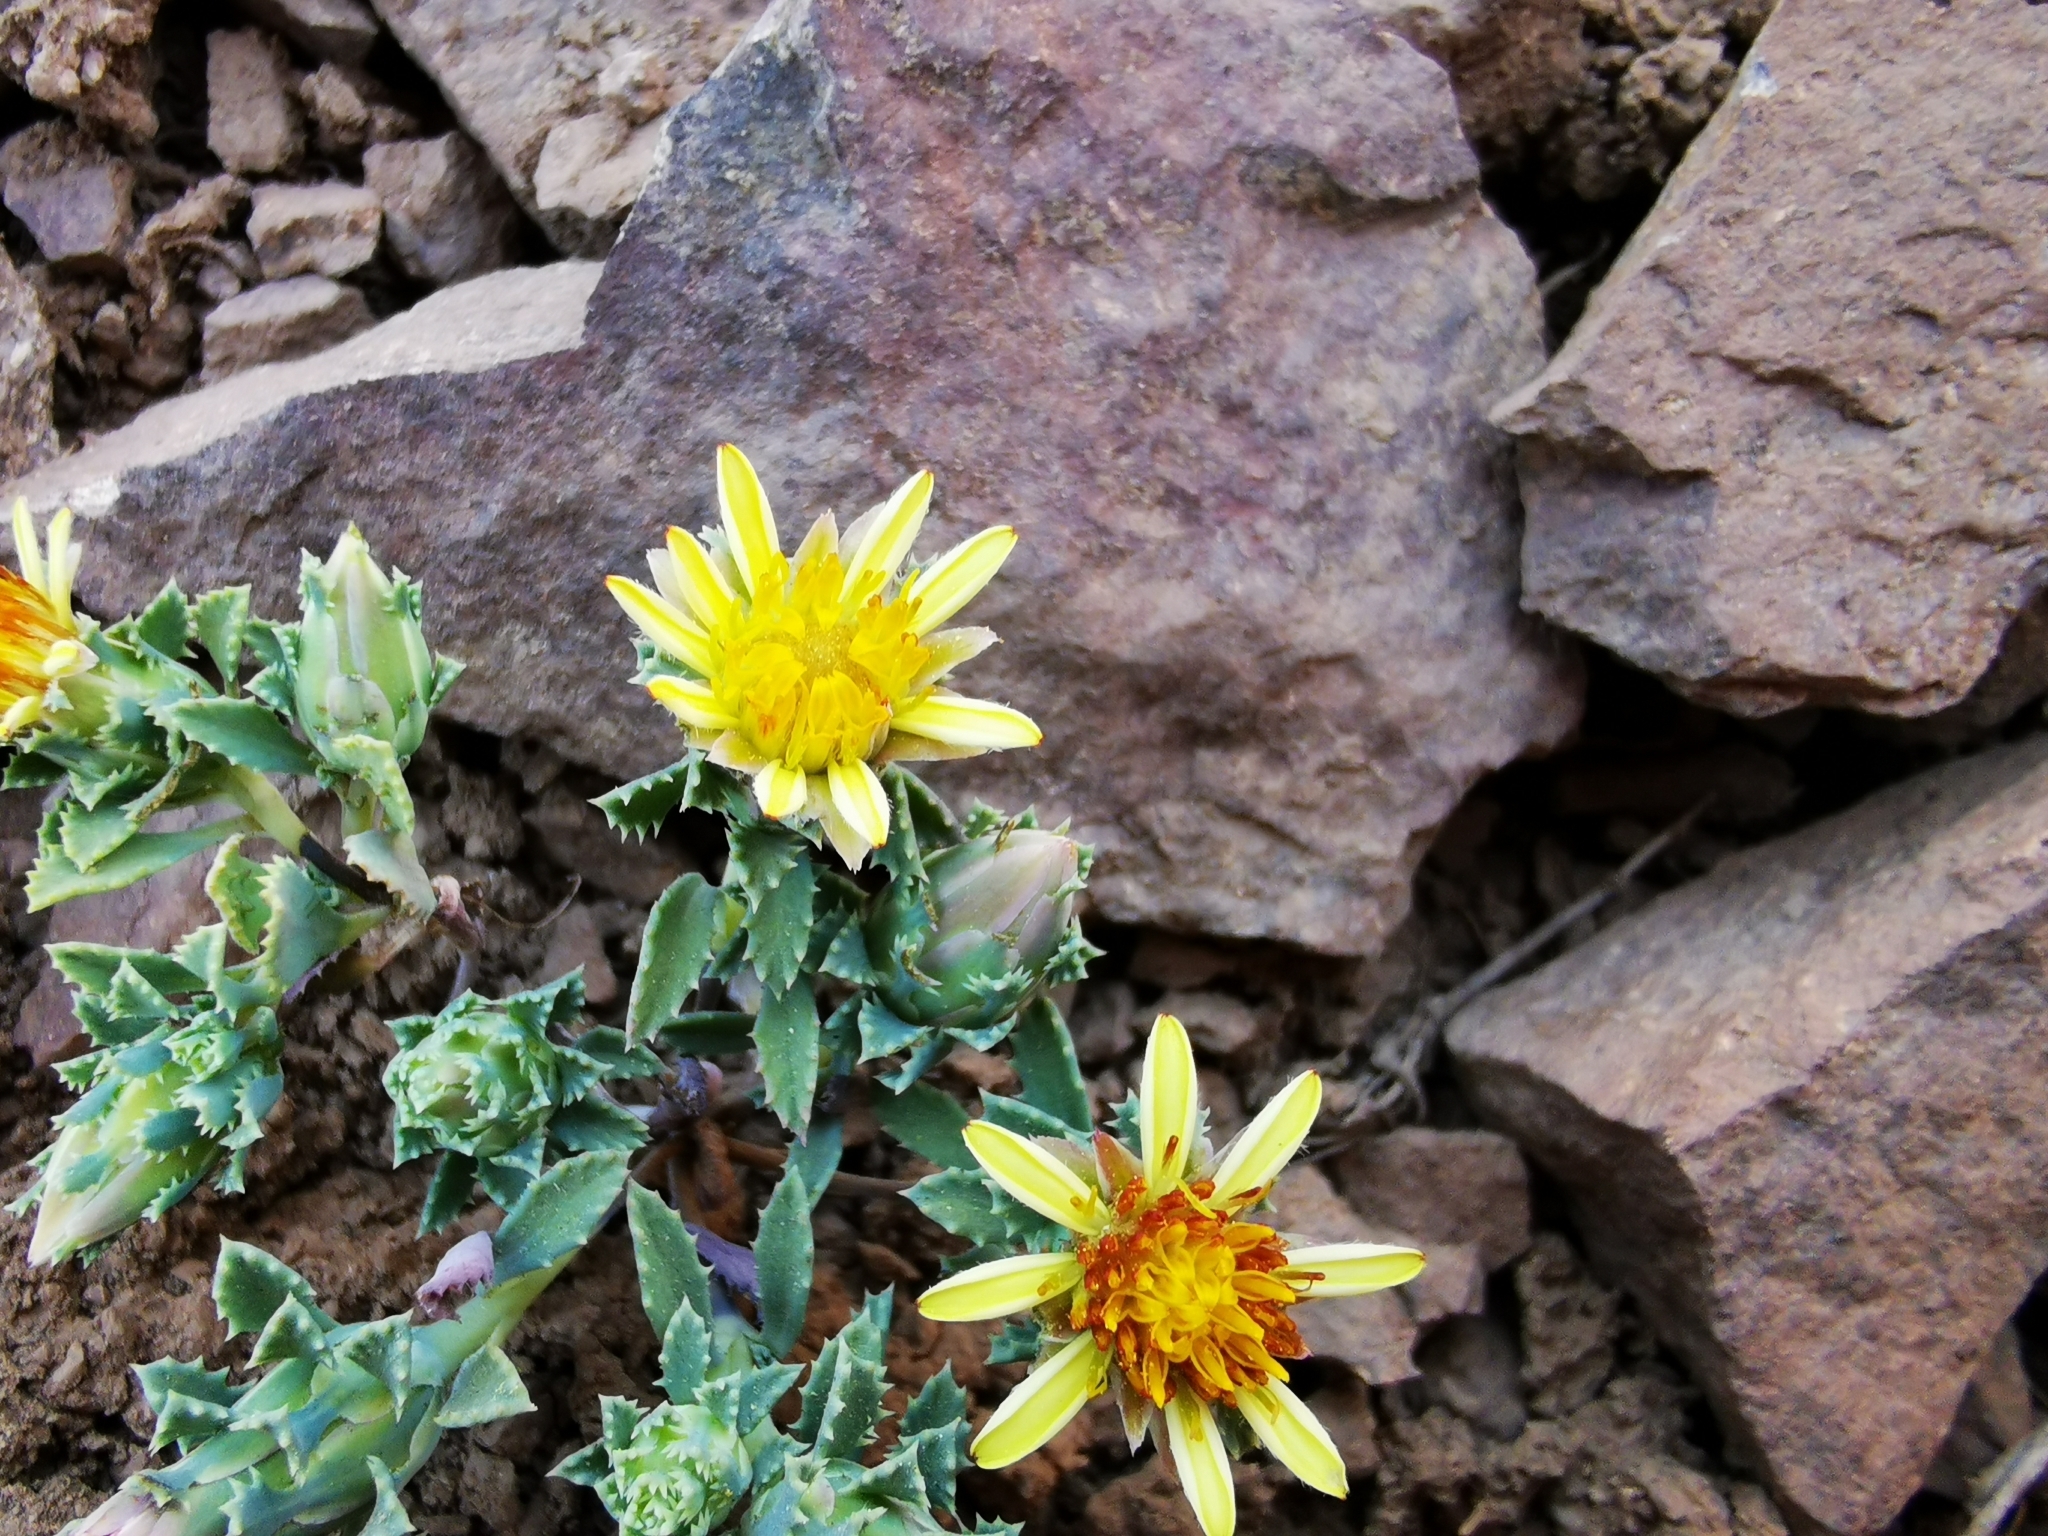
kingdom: Plantae
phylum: Tracheophyta
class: Magnoliopsida
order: Asterales
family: Asteraceae
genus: Chaetanthera
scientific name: Chaetanthera flabellata
